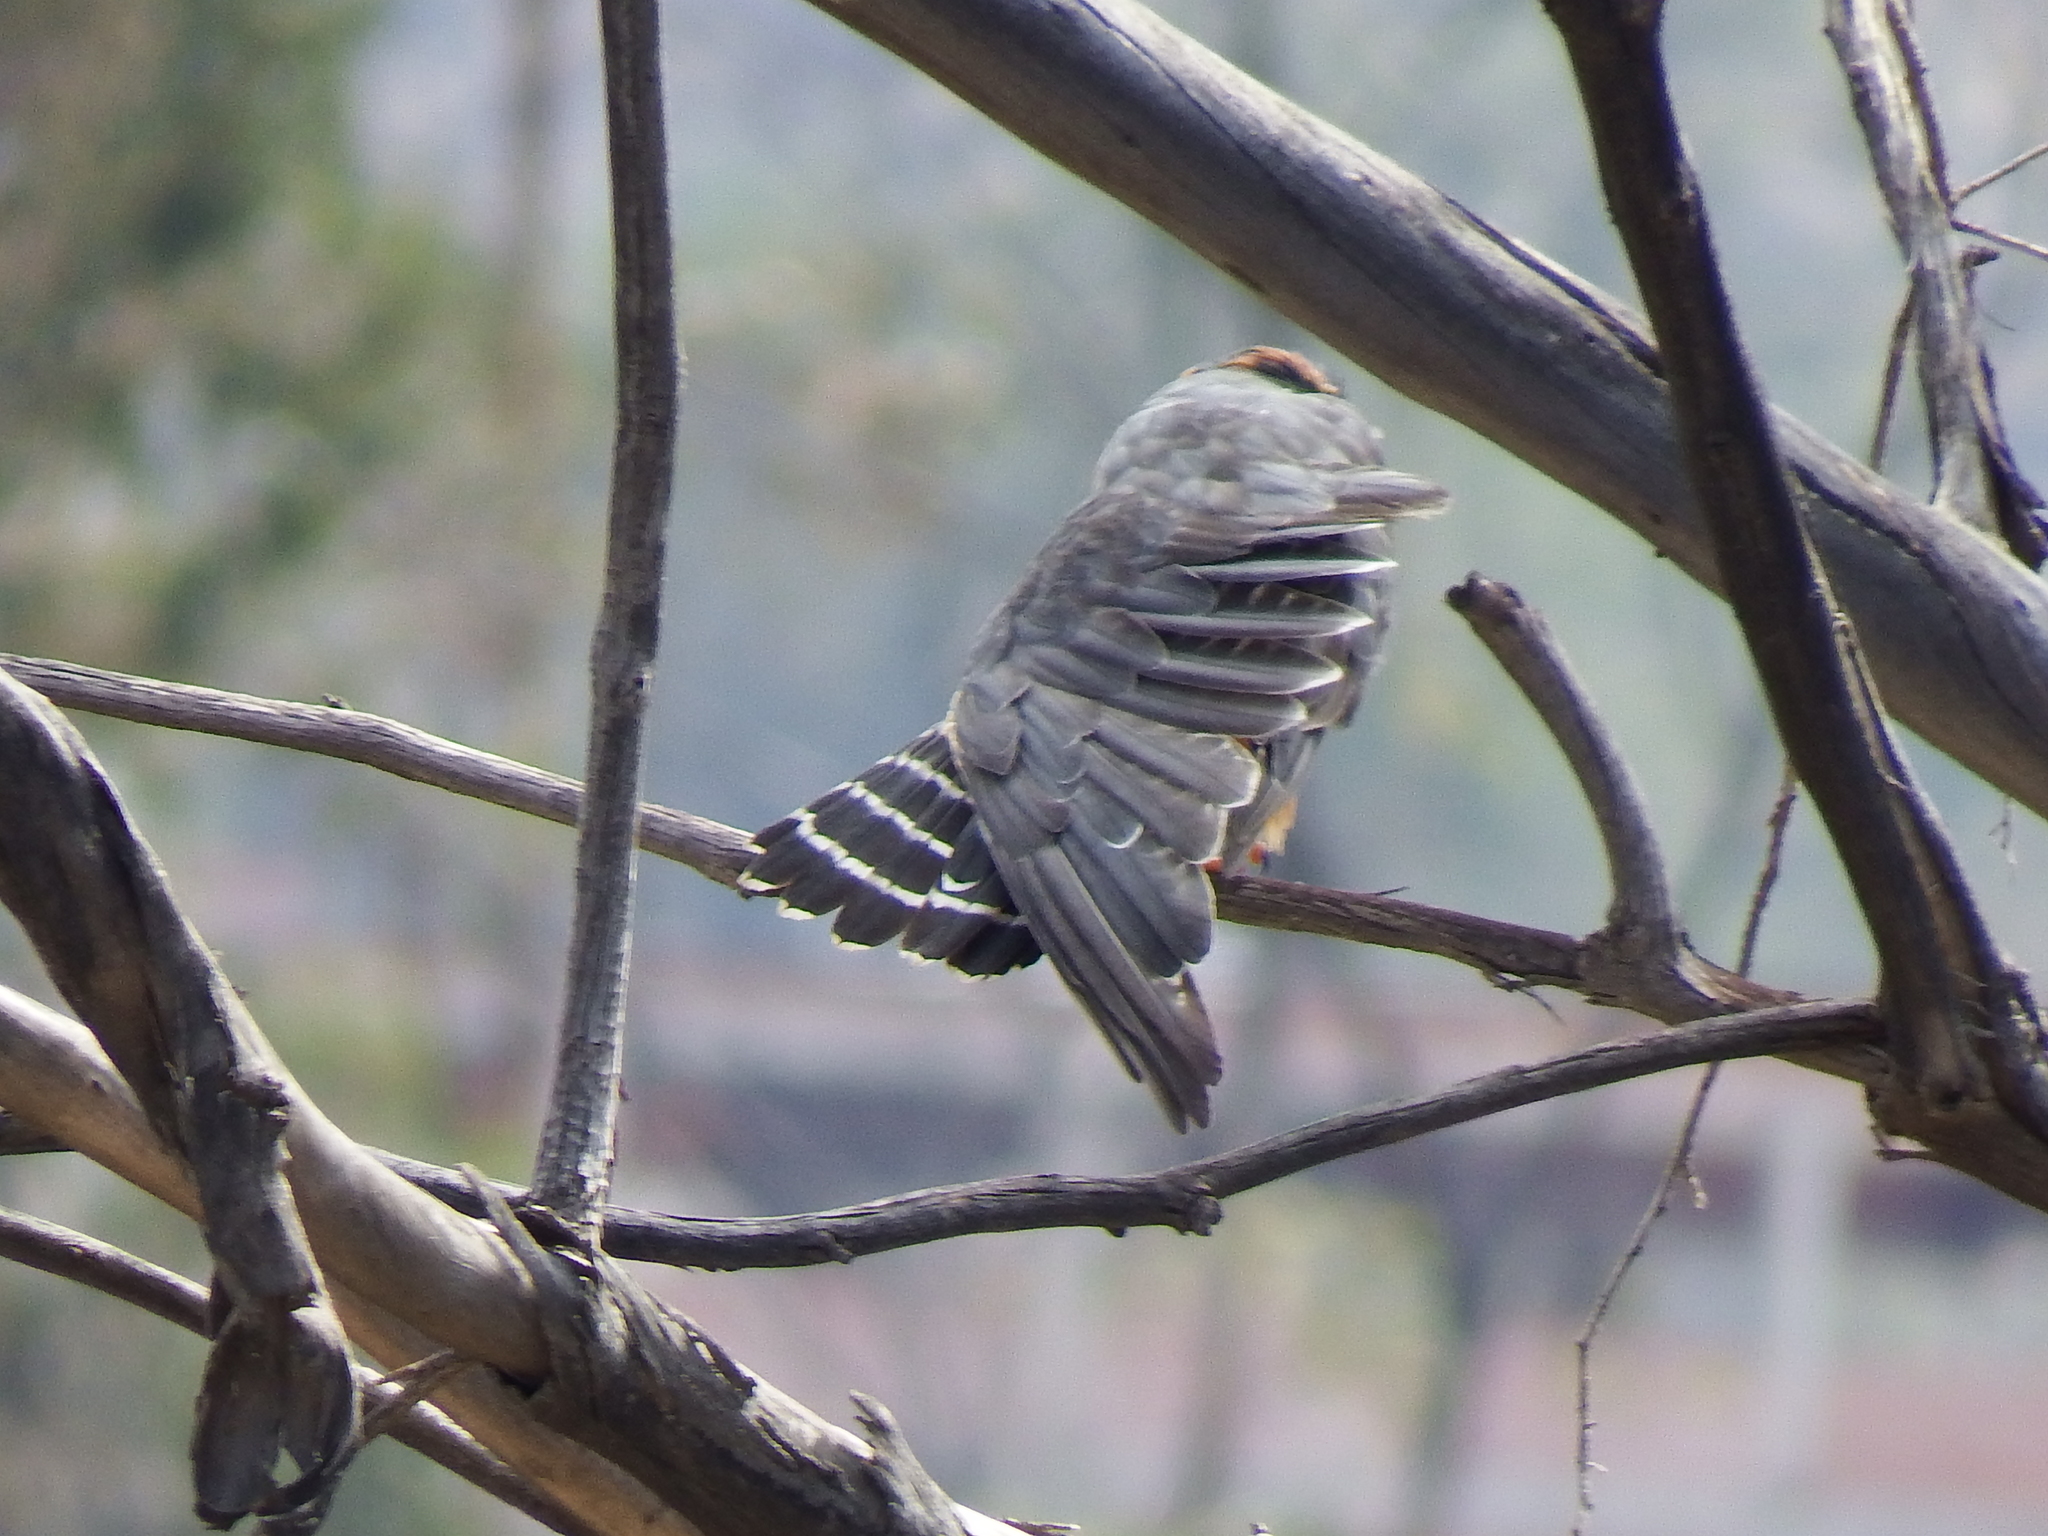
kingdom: Animalia
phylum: Chordata
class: Aves
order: Falconiformes
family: Falconidae
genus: Falco
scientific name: Falco femoralis
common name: Aplomado falcon
